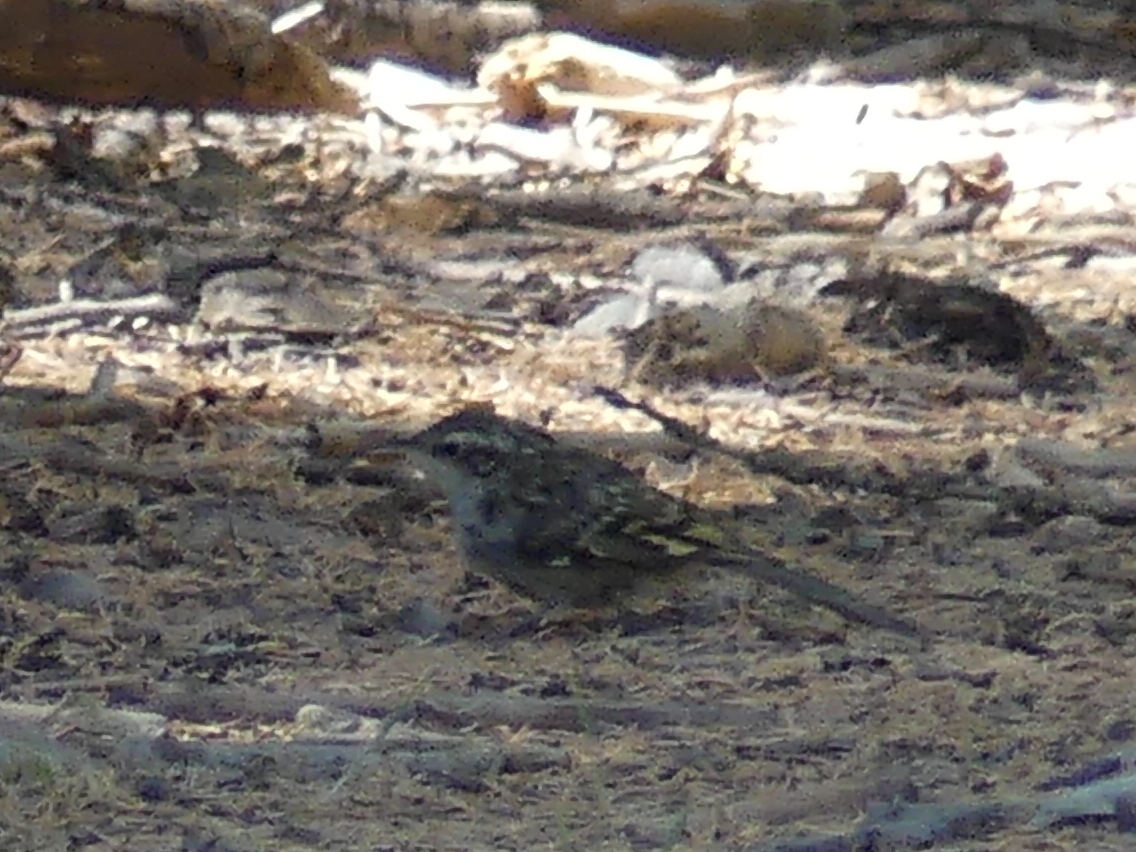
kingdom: Animalia
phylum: Chordata
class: Aves
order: Passeriformes
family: Certhiidae
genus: Certhia
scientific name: Certhia brachydactyla
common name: Short-toed treecreeper
